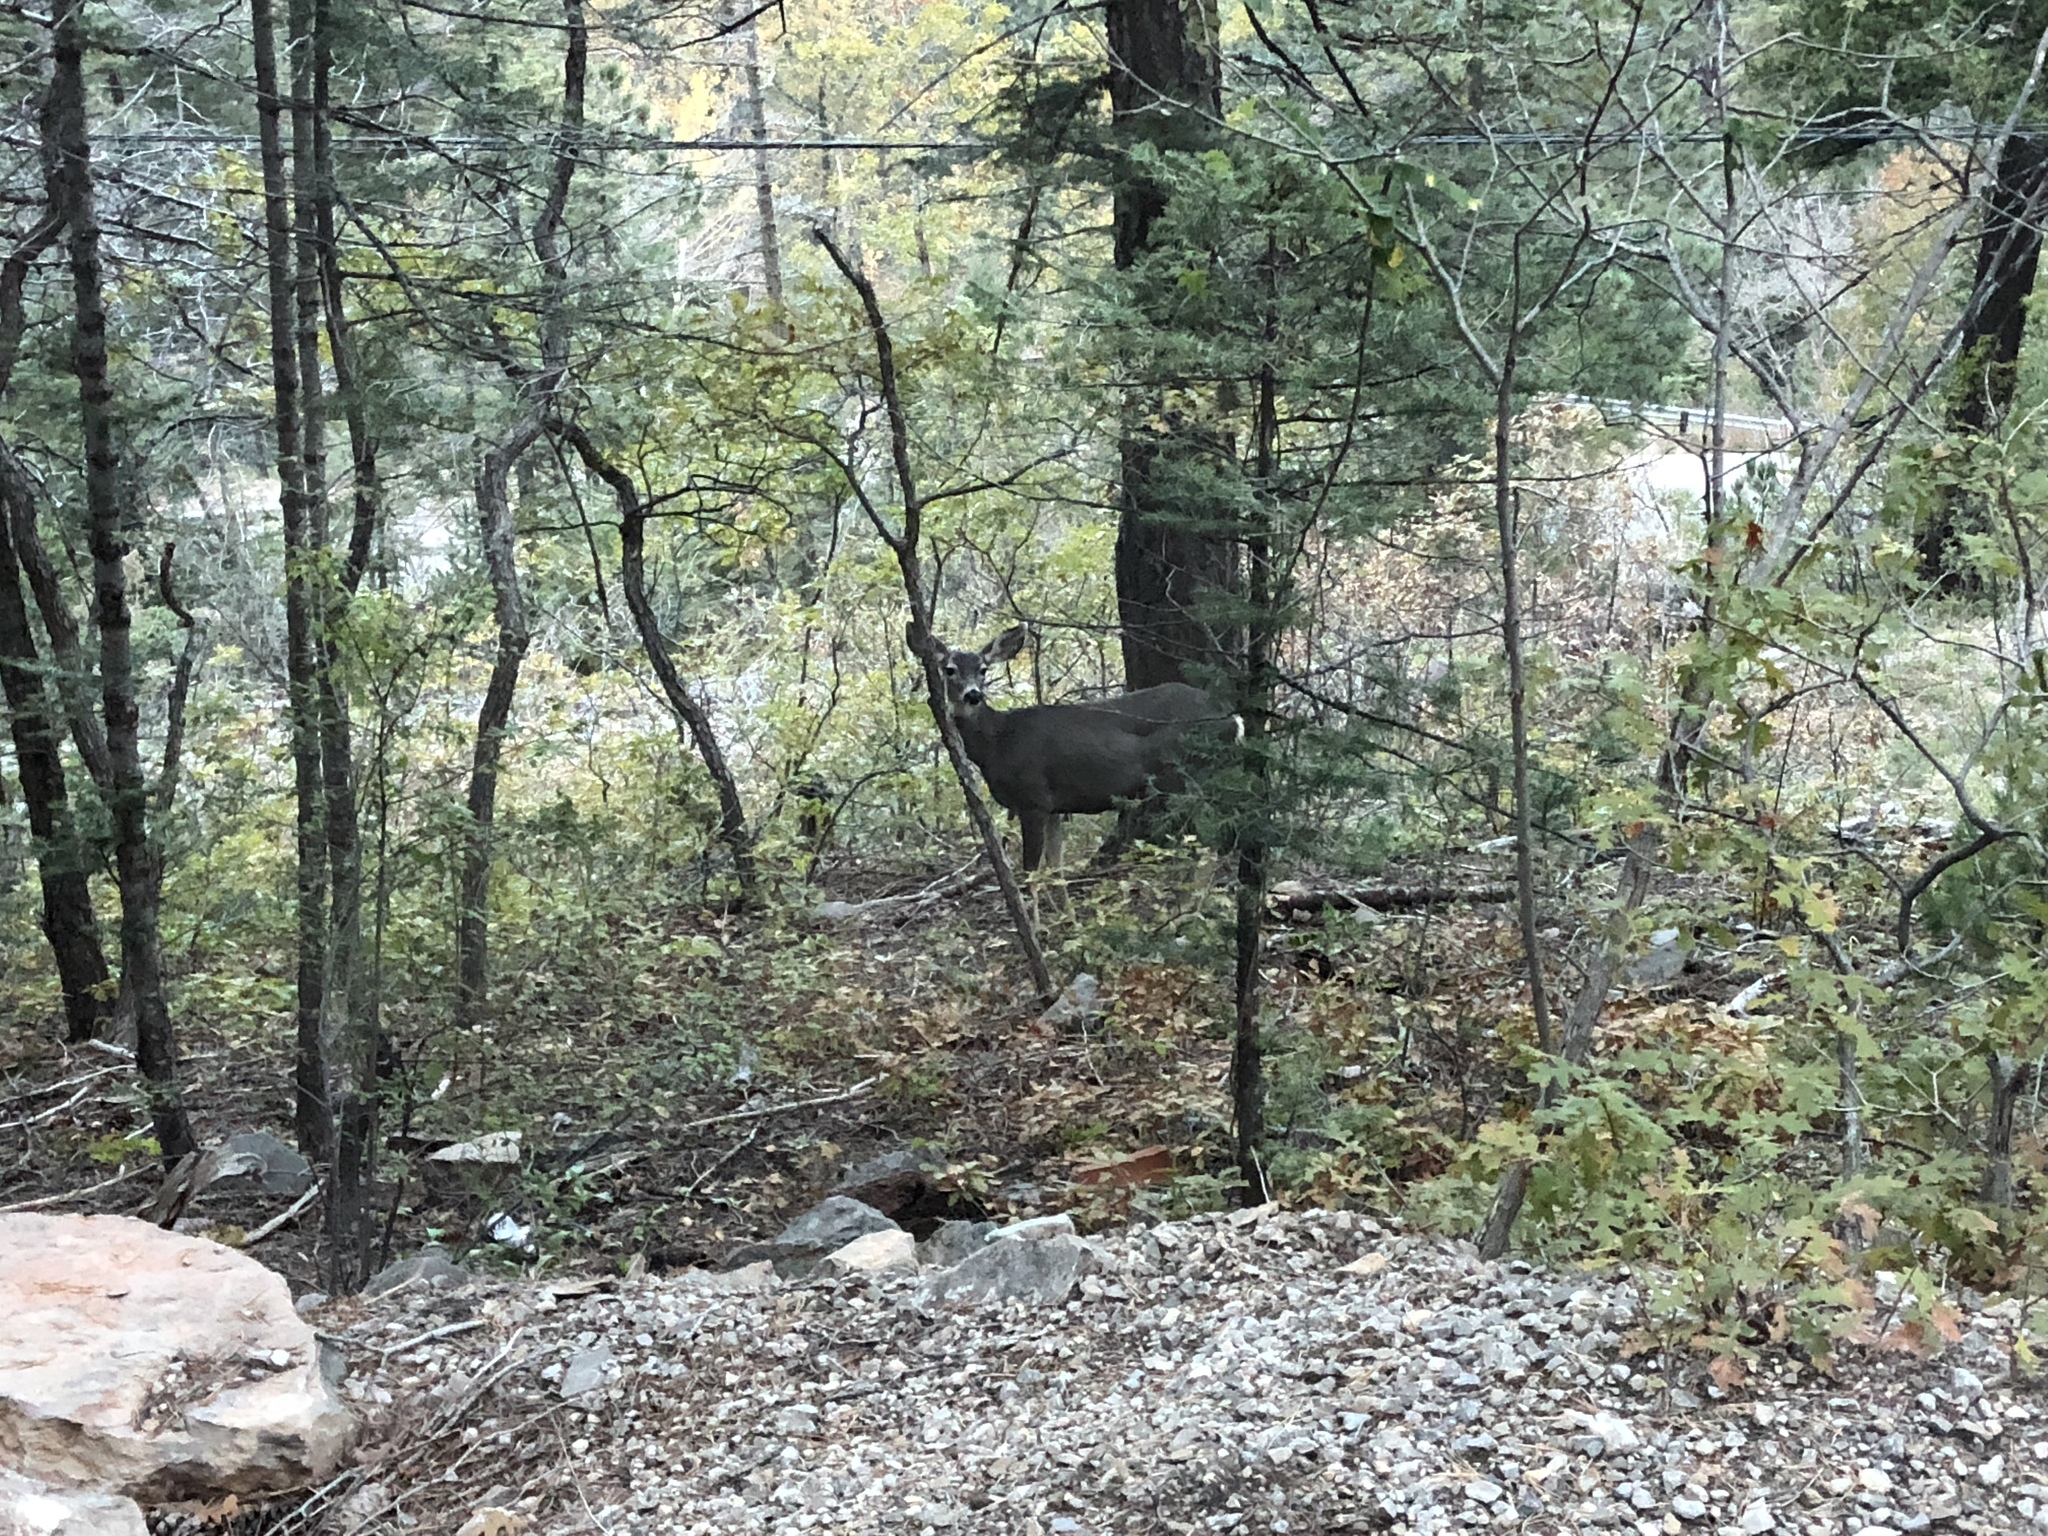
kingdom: Animalia
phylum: Chordata
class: Mammalia
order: Artiodactyla
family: Cervidae
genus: Odocoileus
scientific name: Odocoileus hemionus
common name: Mule deer
